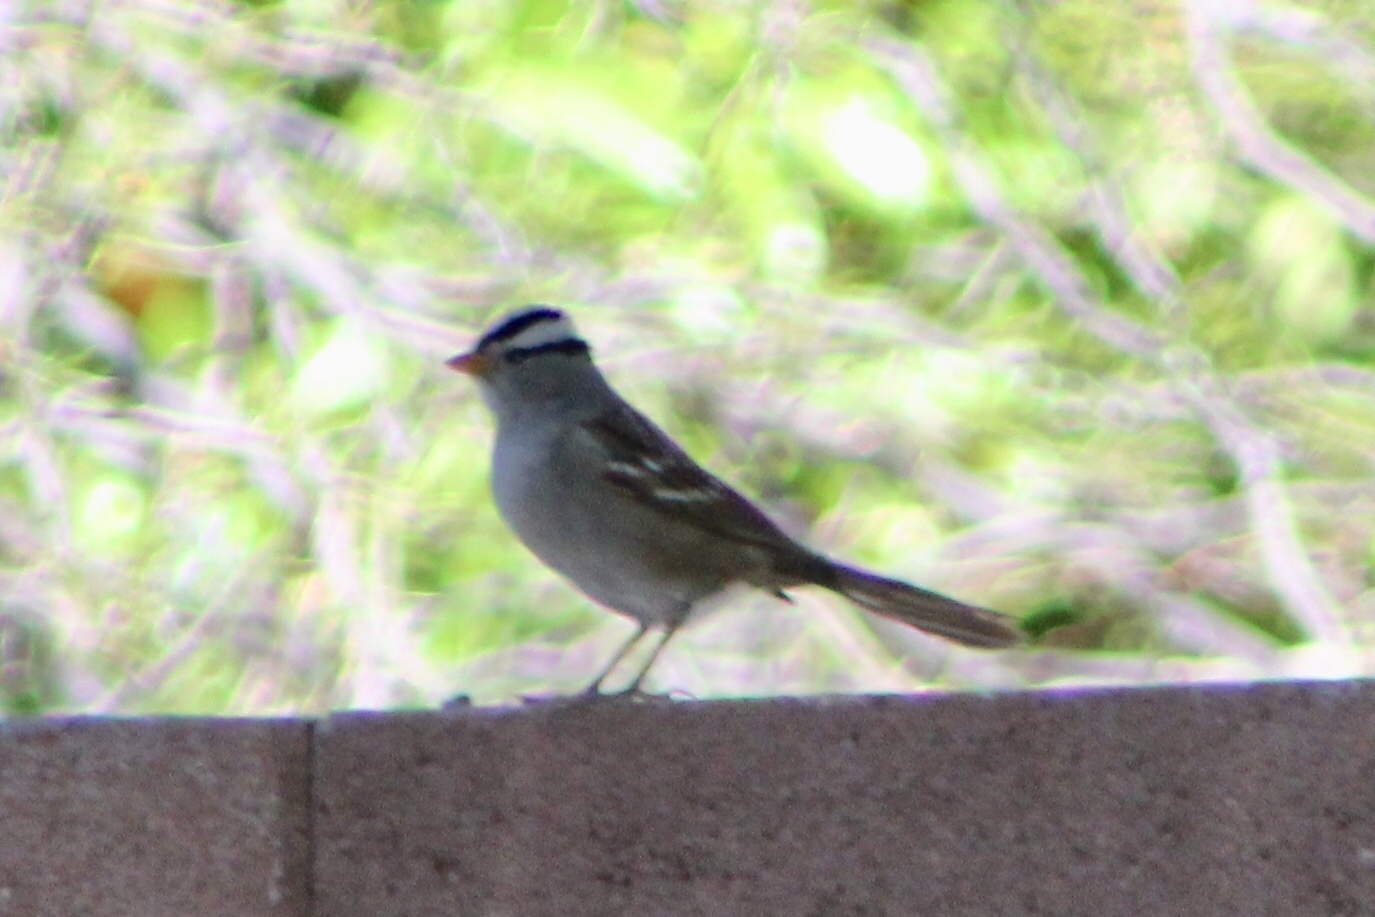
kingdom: Animalia
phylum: Chordata
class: Aves
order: Passeriformes
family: Passerellidae
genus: Zonotrichia
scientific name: Zonotrichia leucophrys
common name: White-crowned sparrow
